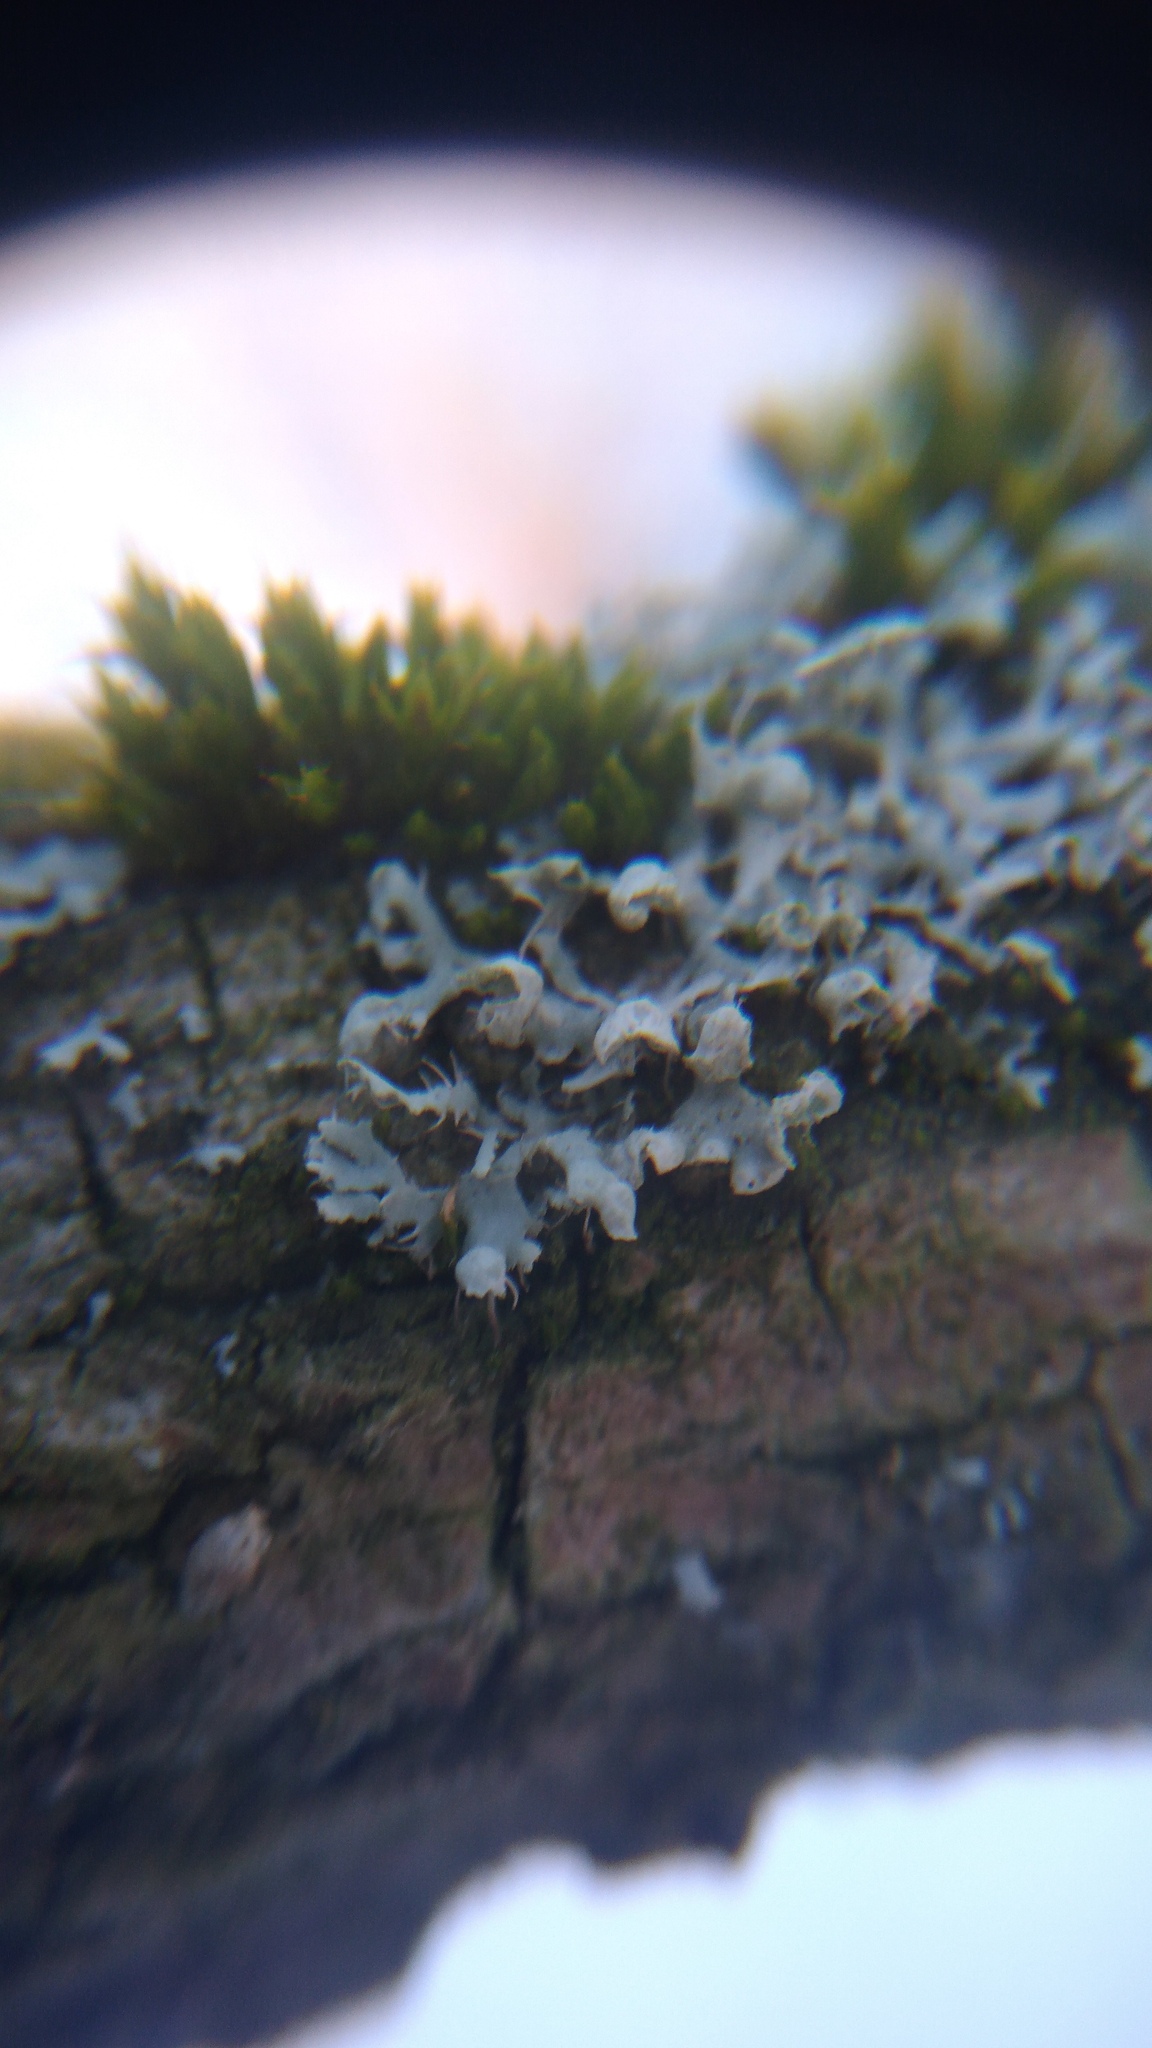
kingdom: Fungi
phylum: Ascomycota
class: Lecanoromycetes
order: Caliciales
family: Physciaceae
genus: Physcia
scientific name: Physcia adscendens
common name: Hooded rosette lichen
